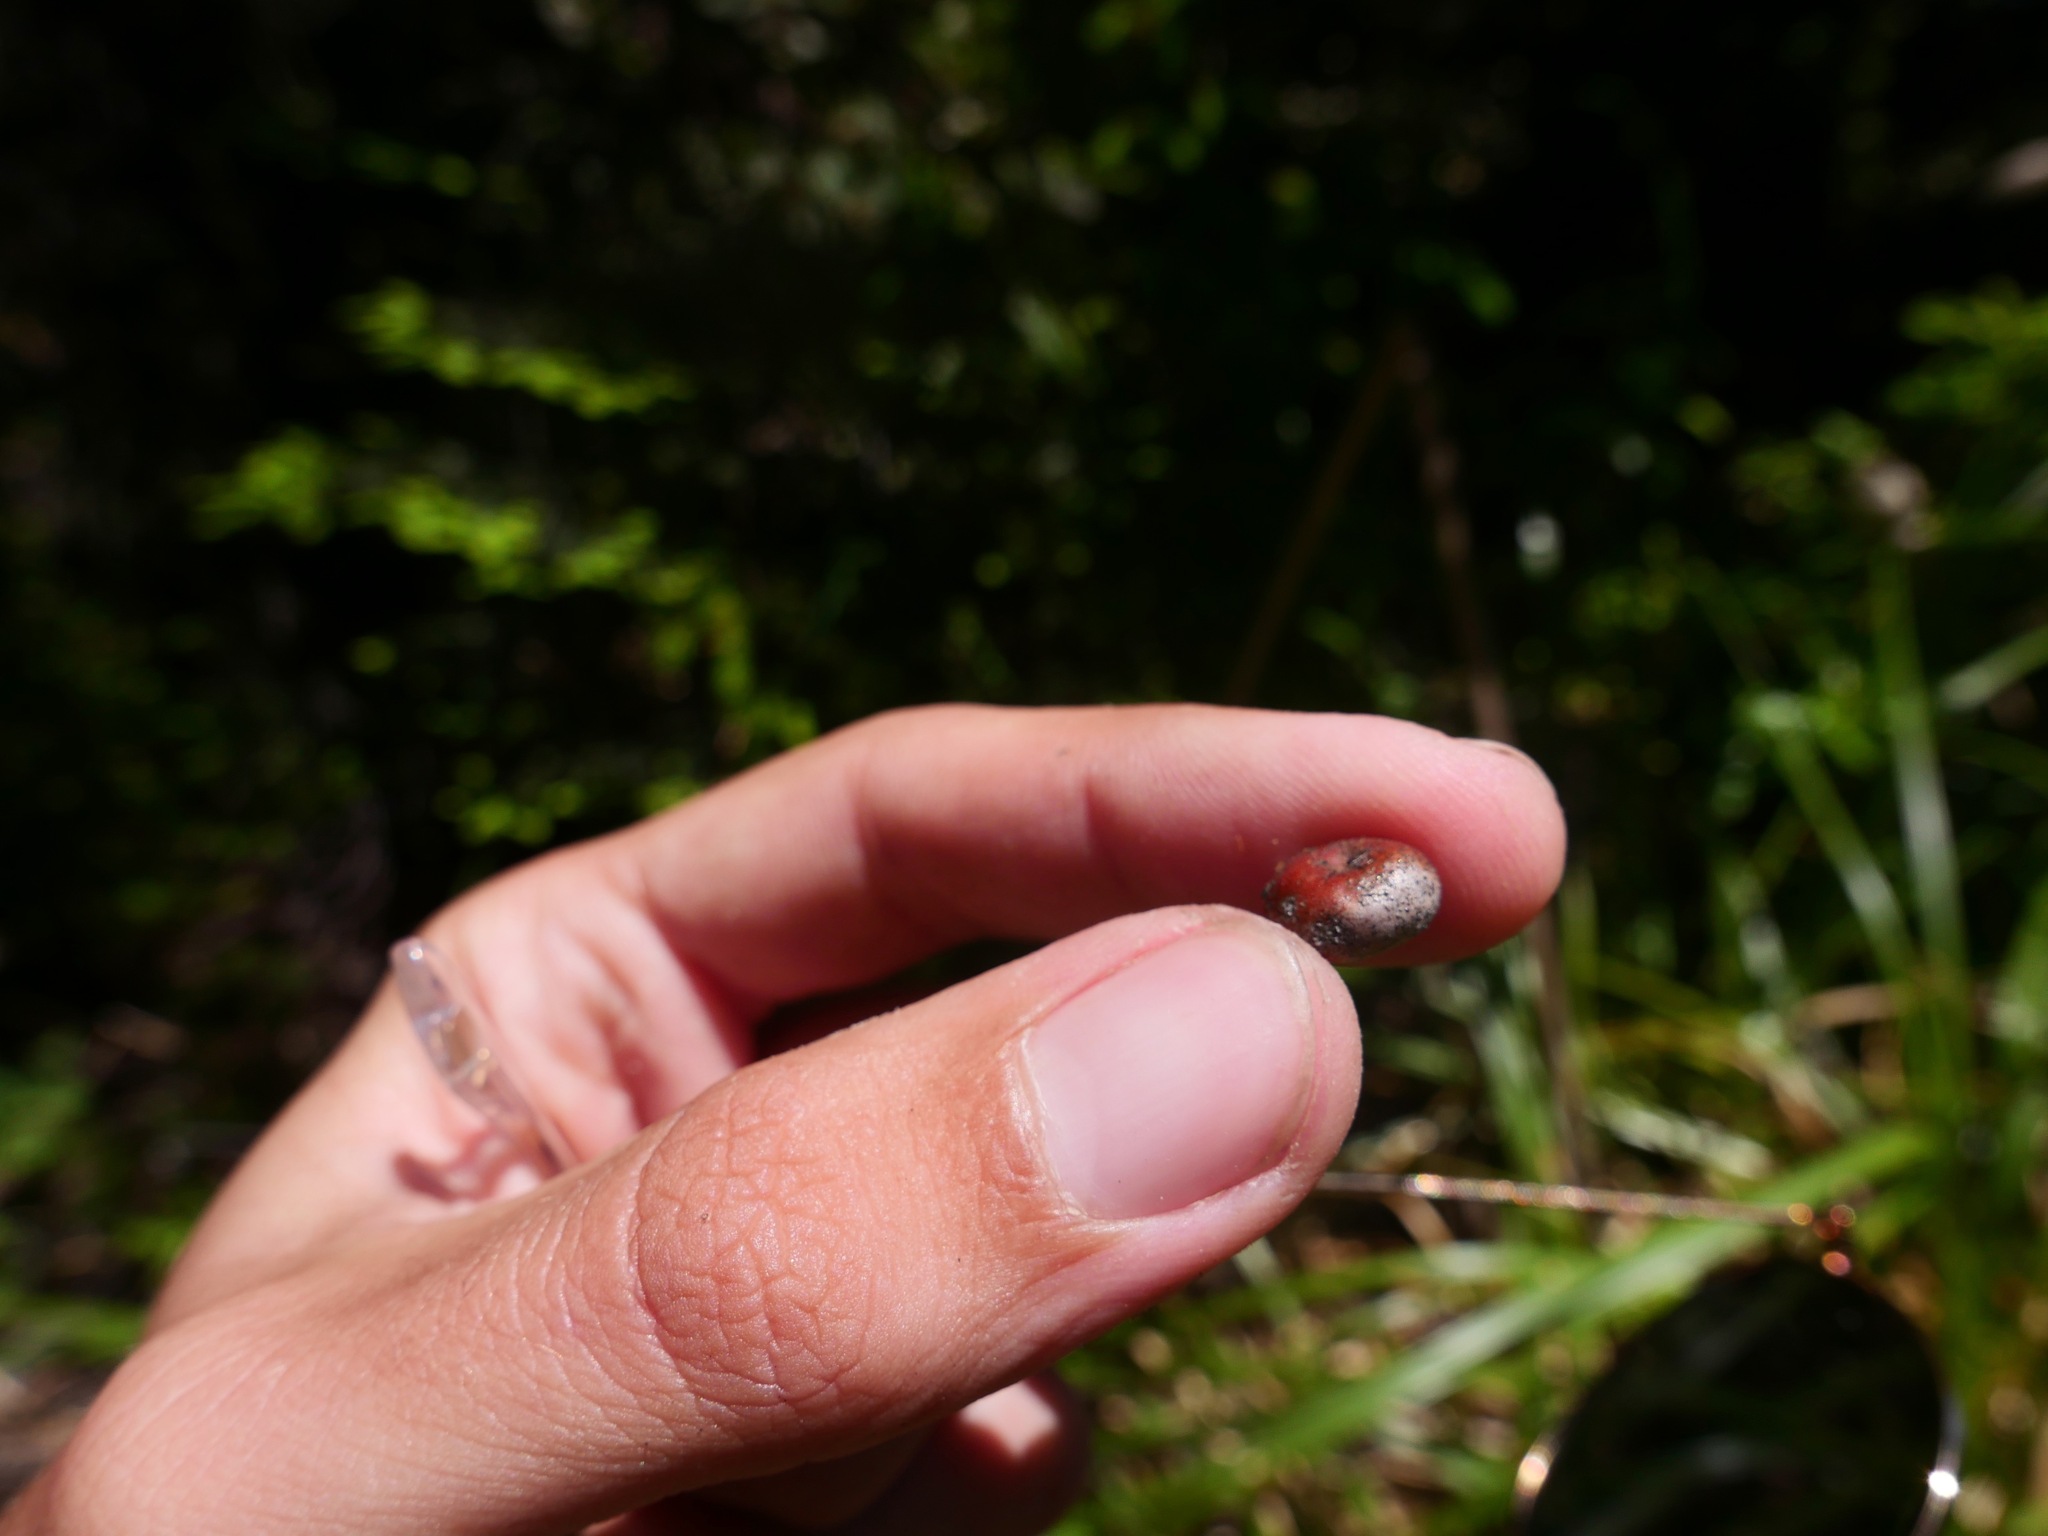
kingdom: Plantae
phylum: Tracheophyta
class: Magnoliopsida
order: Ericales
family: Ericaceae
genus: Arctostaphylos
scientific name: Arctostaphylos columbiana
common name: Bristly bearberry
